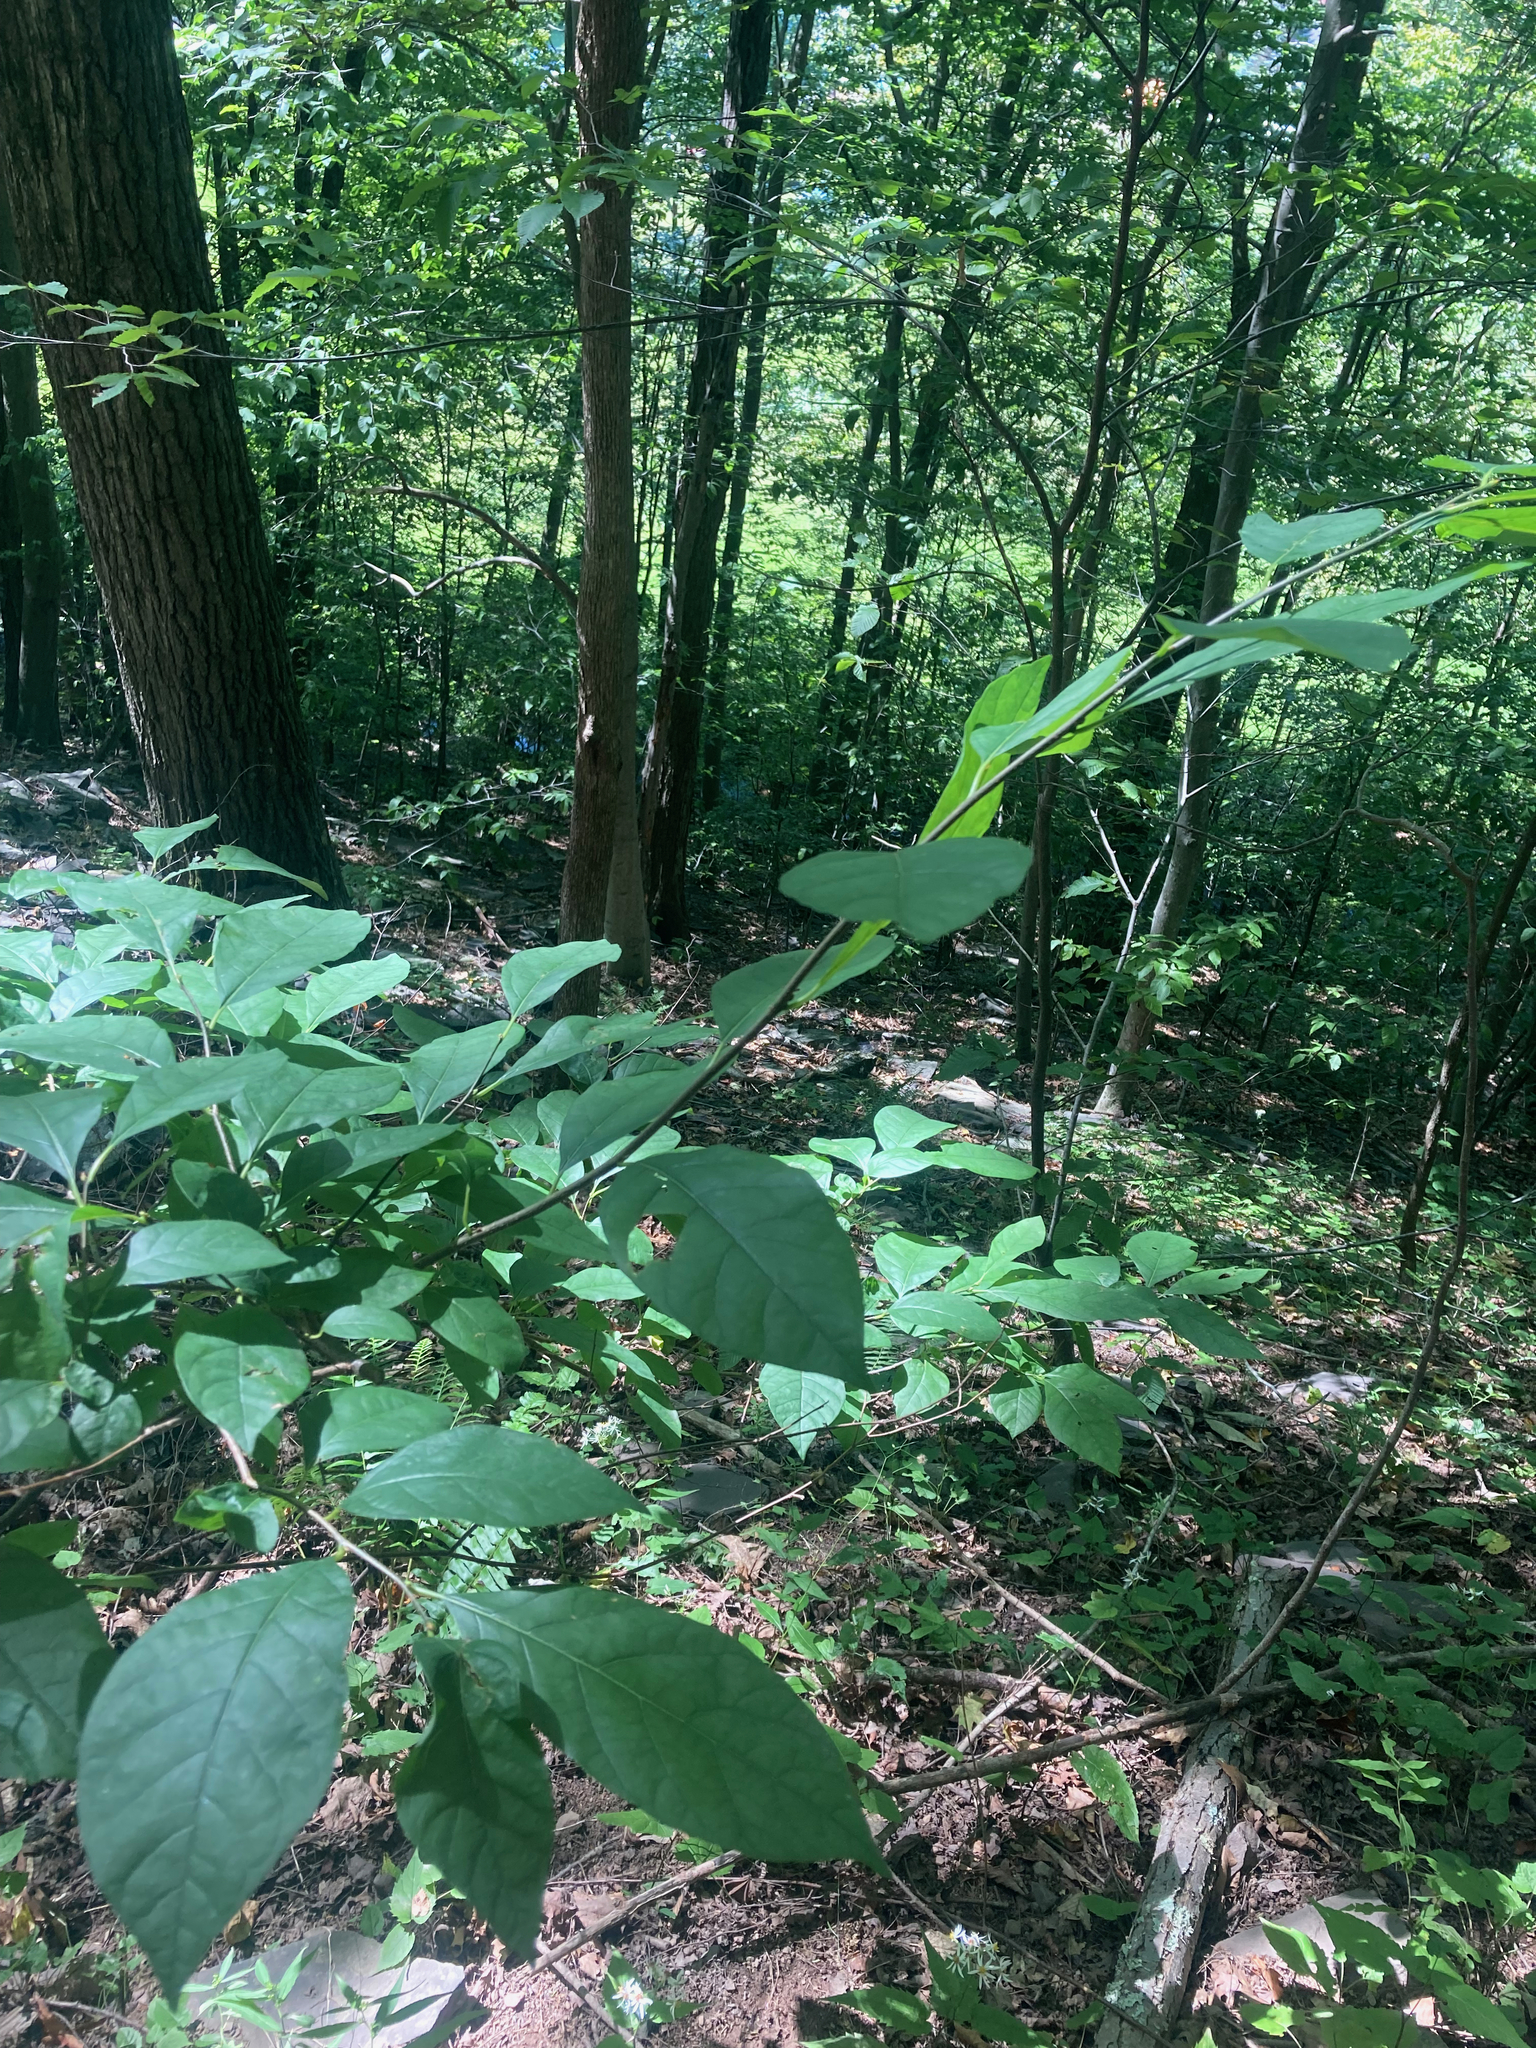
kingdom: Plantae
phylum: Tracheophyta
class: Magnoliopsida
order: Laurales
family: Lauraceae
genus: Lindera
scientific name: Lindera benzoin
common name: Spicebush
